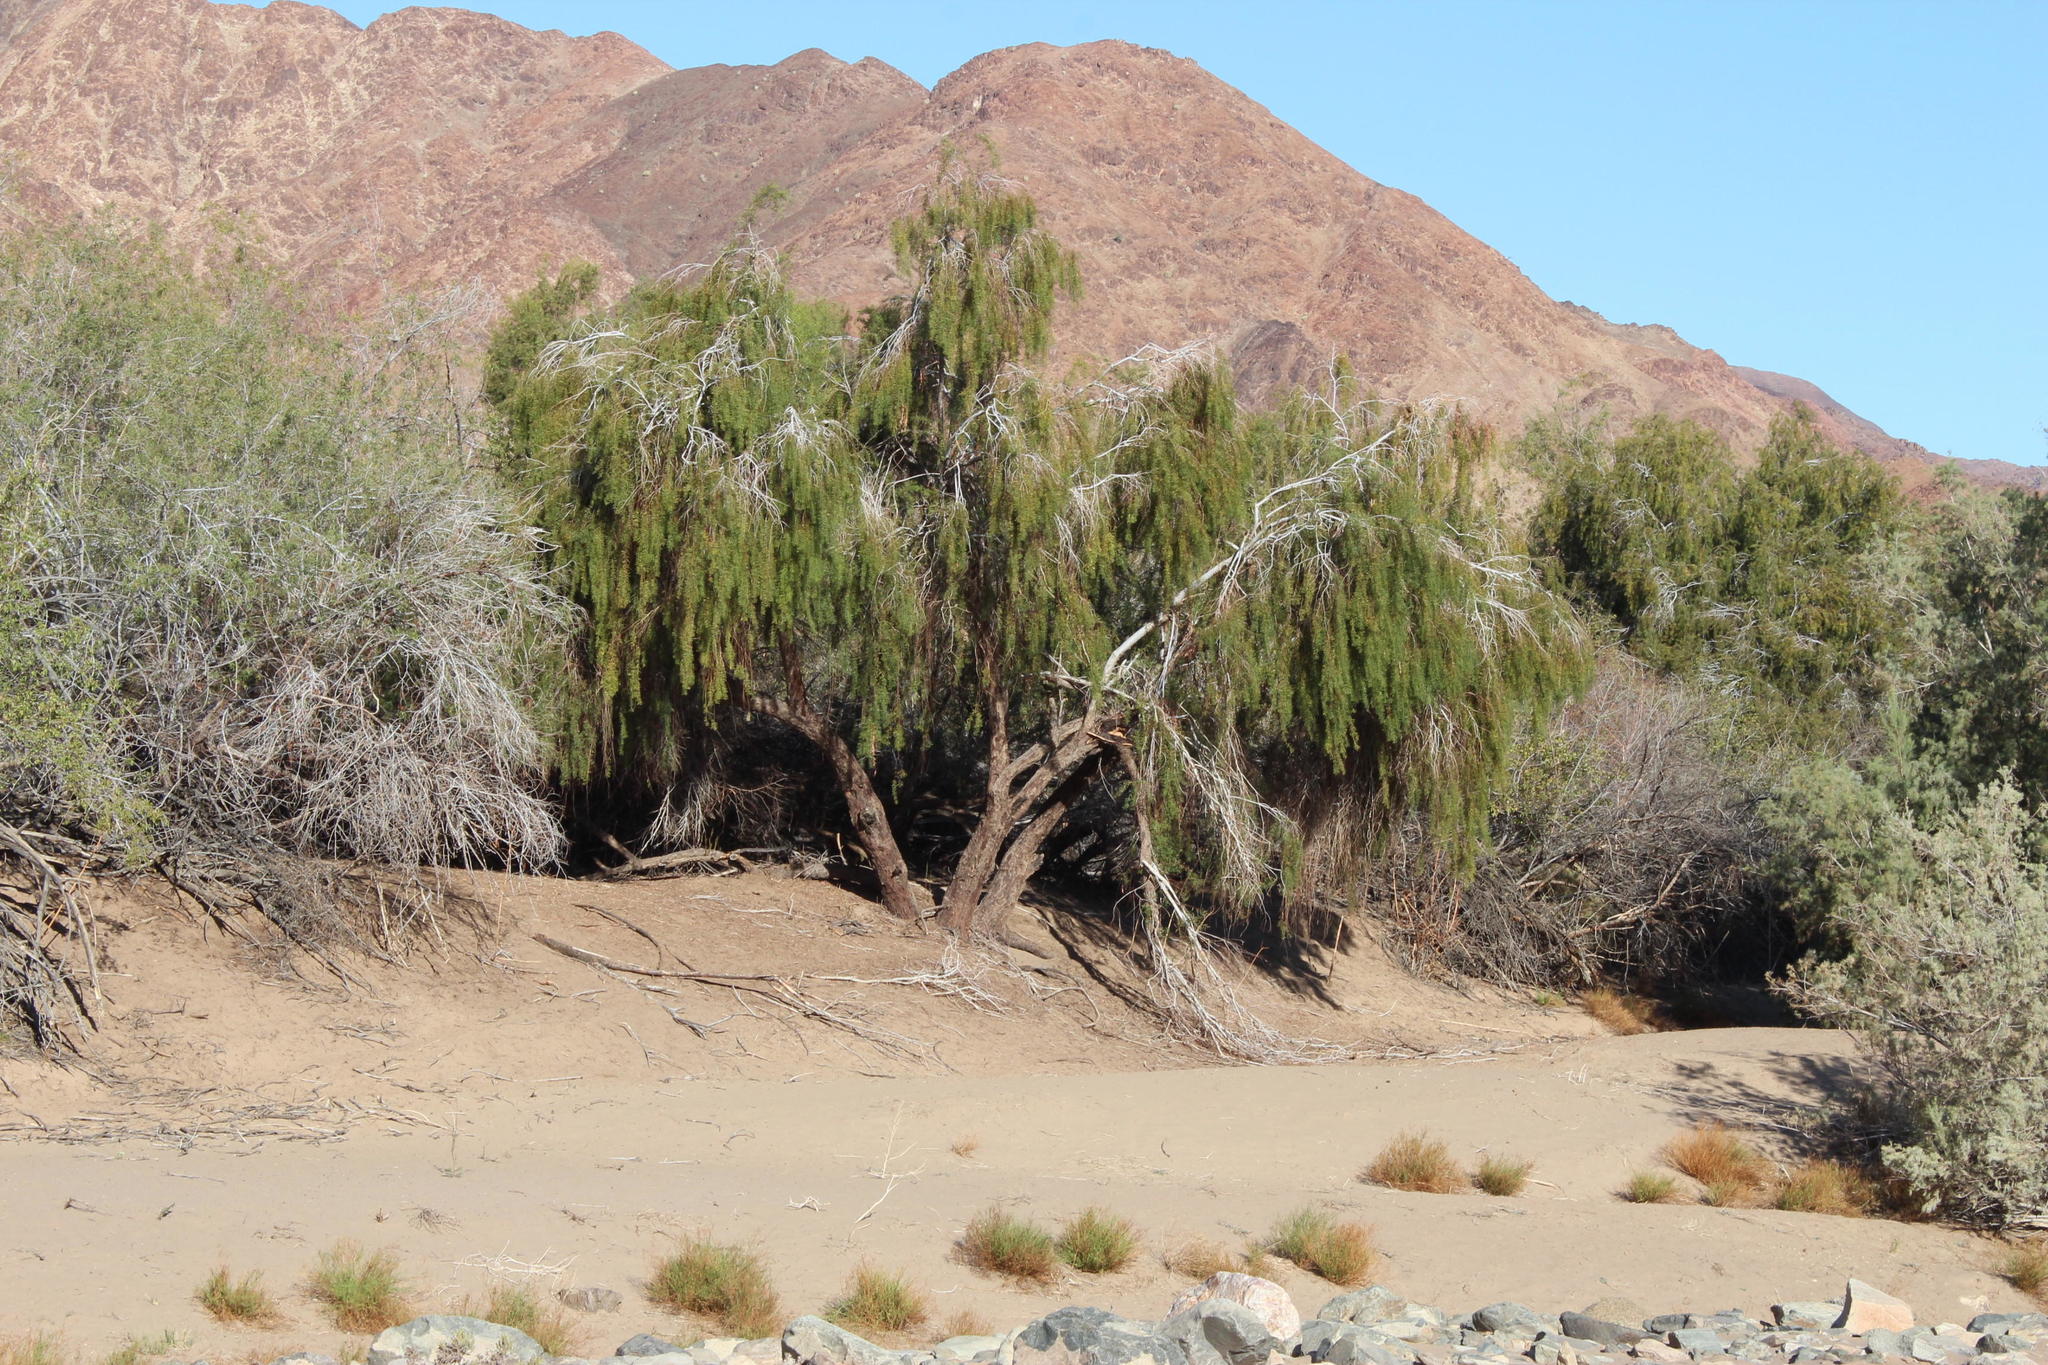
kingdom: Plantae
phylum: Tracheophyta
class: Magnoliopsida
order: Ericales
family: Ebenaceae
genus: Euclea
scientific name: Euclea pseudebenus
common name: Black ebony
